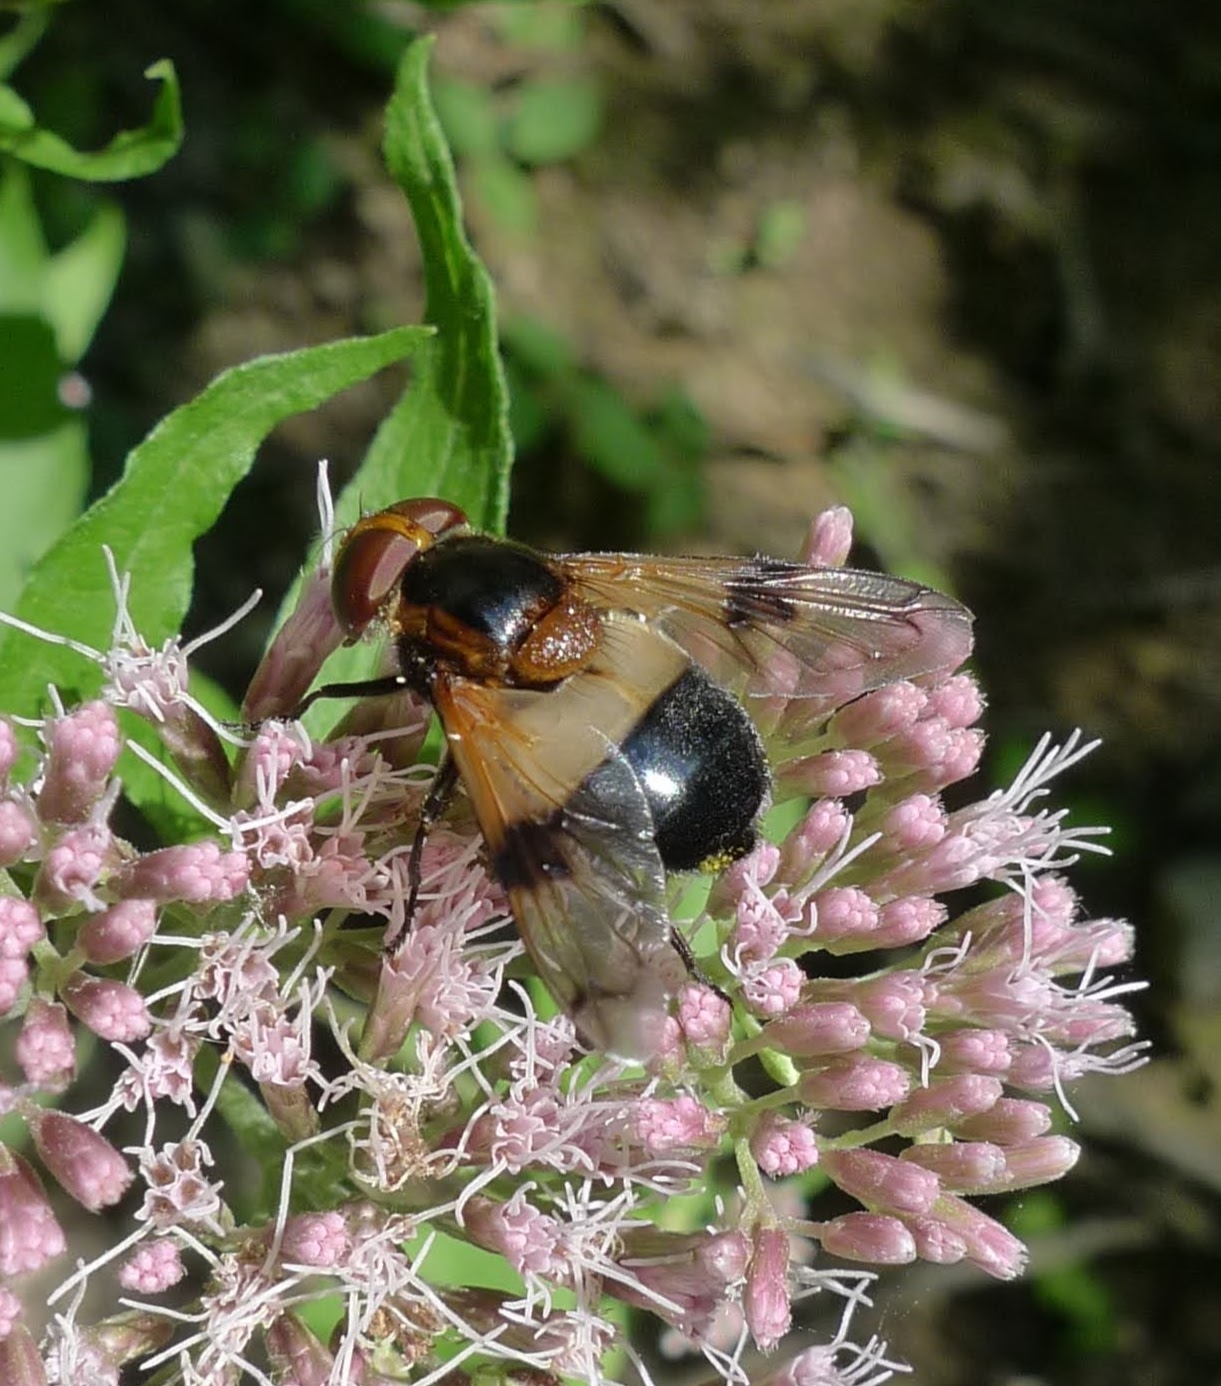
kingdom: Animalia
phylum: Arthropoda
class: Insecta
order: Diptera
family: Syrphidae
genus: Volucella
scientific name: Volucella pellucens
